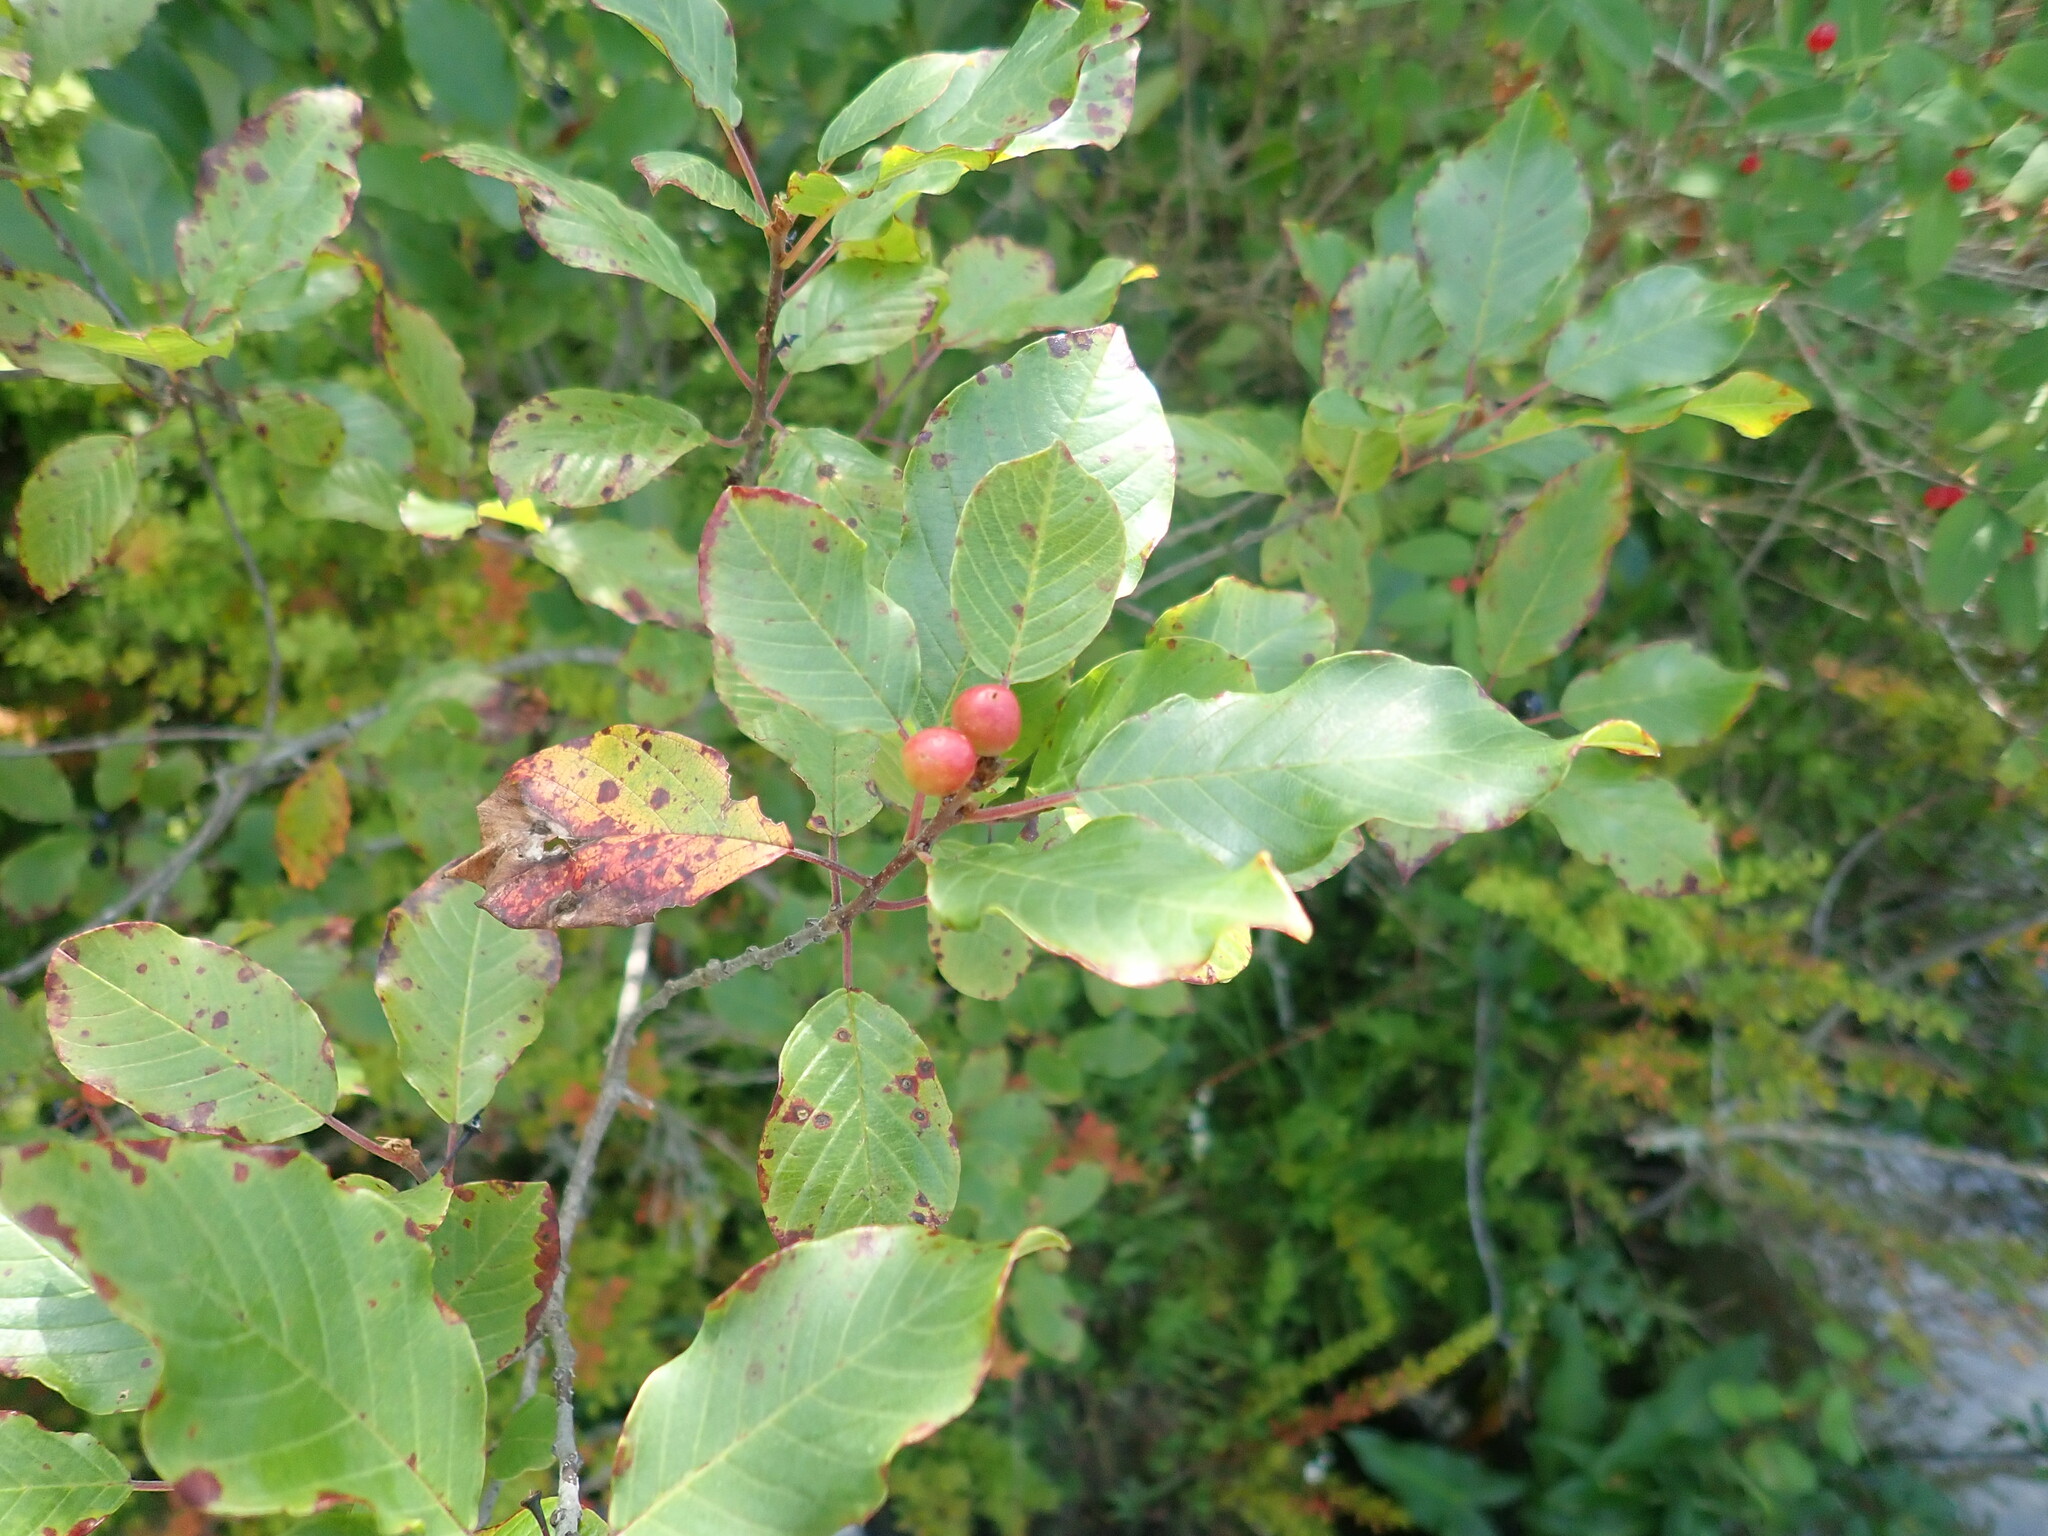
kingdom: Plantae
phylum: Tracheophyta
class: Magnoliopsida
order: Rosales
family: Rhamnaceae
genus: Frangula
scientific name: Frangula alnus
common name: Alder buckthorn
